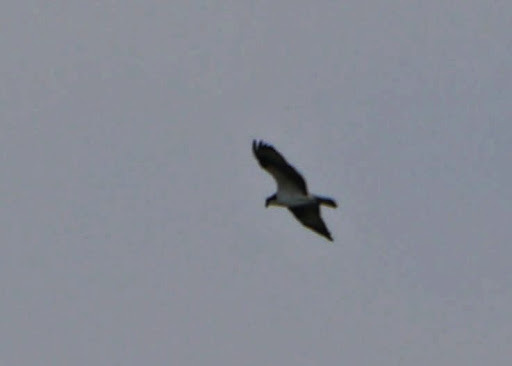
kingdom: Animalia
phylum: Chordata
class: Aves
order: Accipitriformes
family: Pandionidae
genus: Pandion
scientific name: Pandion haliaetus
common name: Osprey
